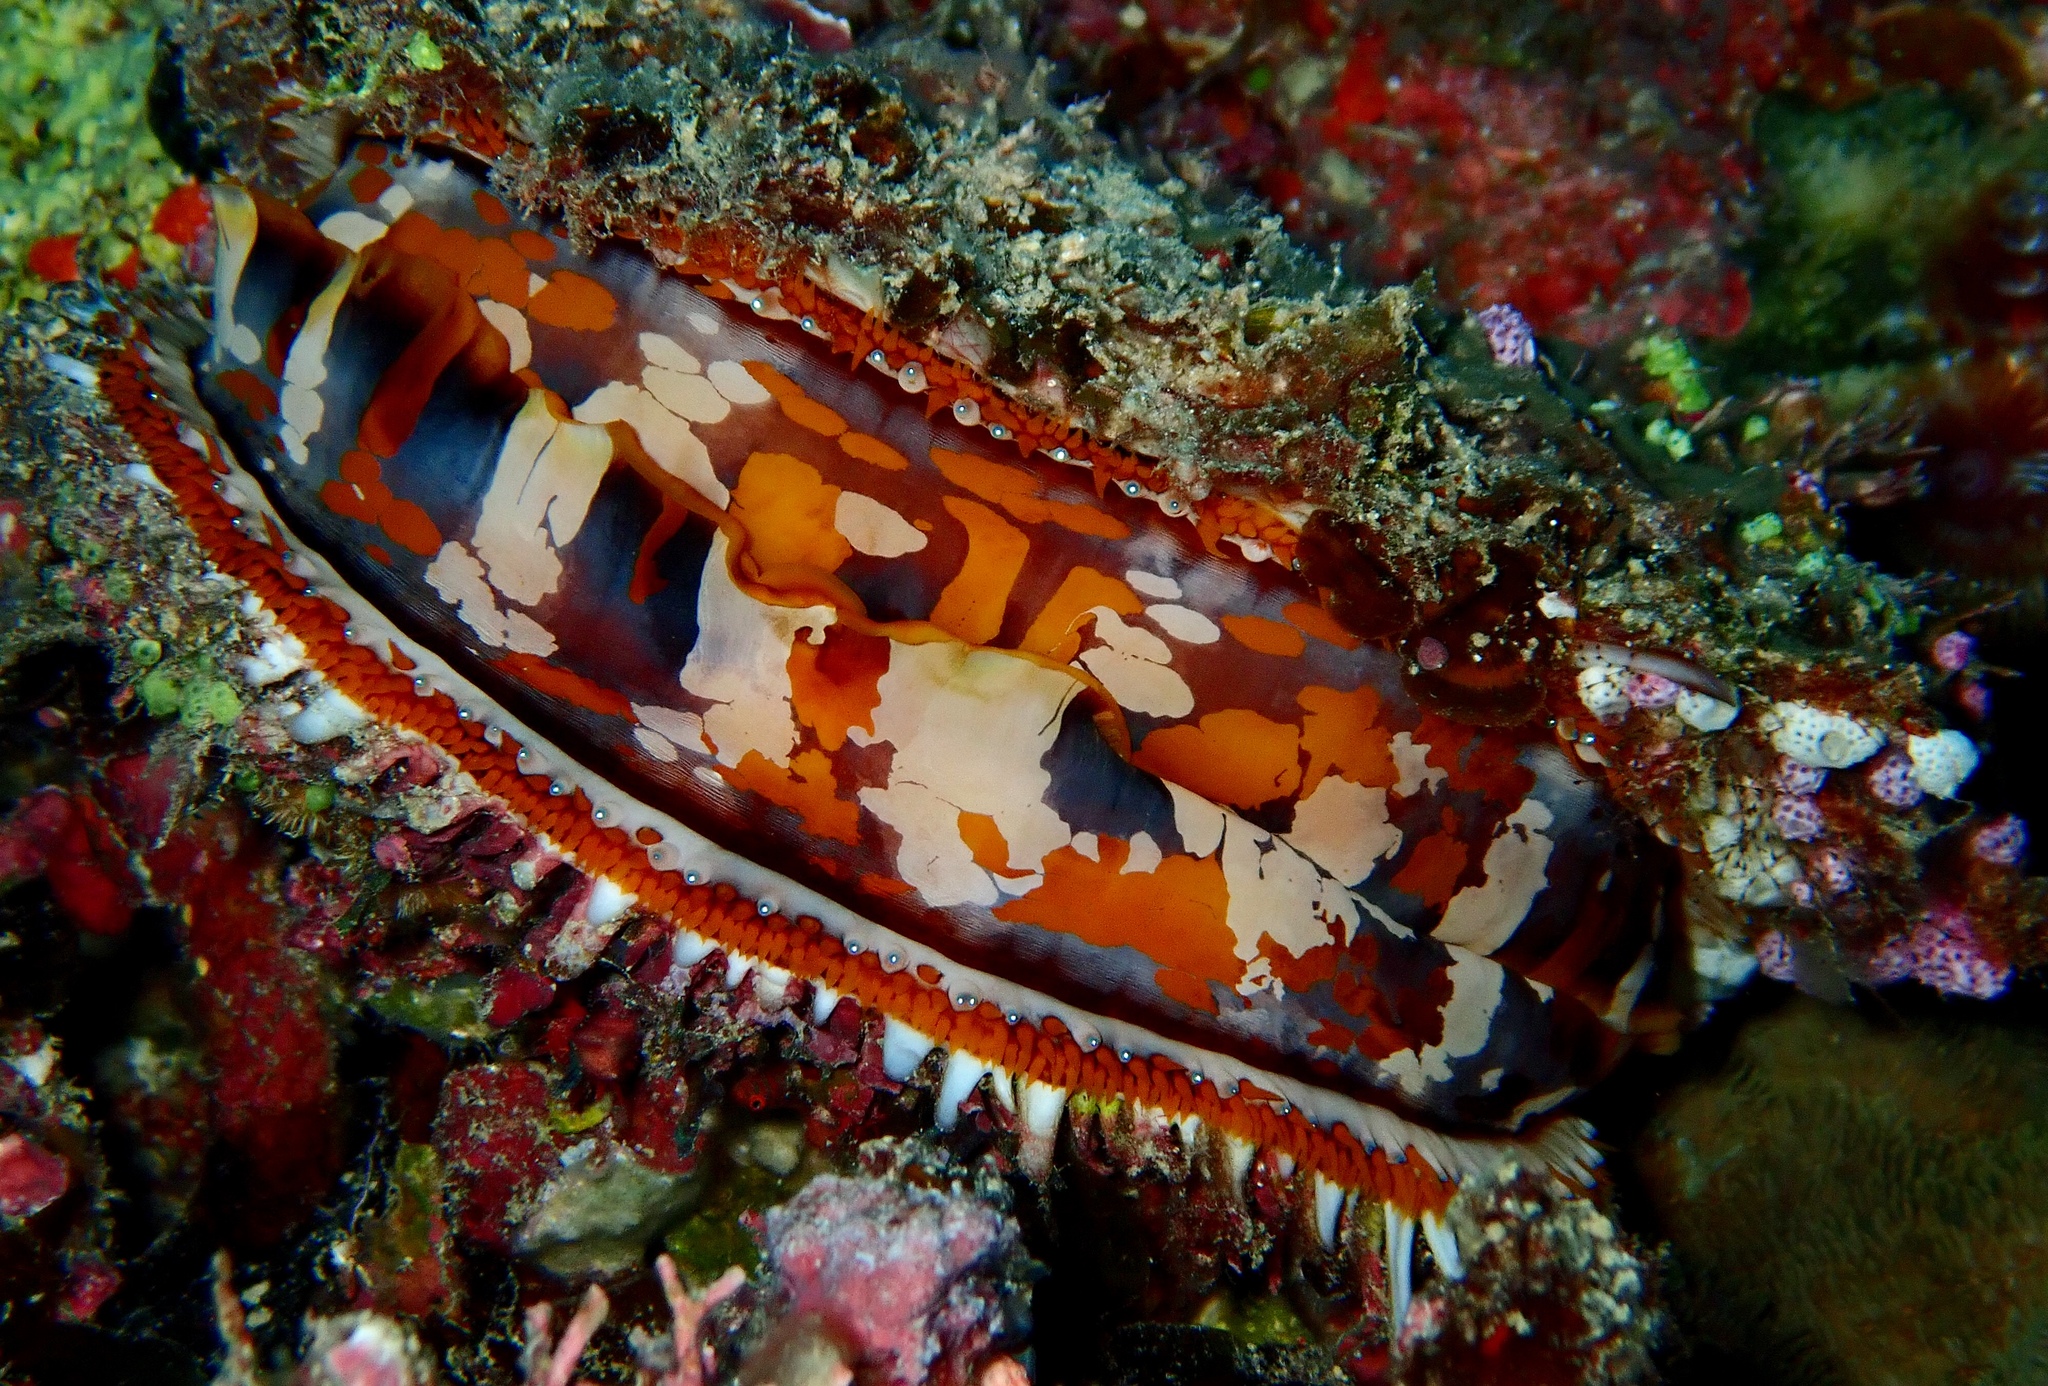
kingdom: Animalia
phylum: Mollusca
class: Bivalvia
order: Pectinida
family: Spondylidae
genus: Spondylus
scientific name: Spondylus varius
